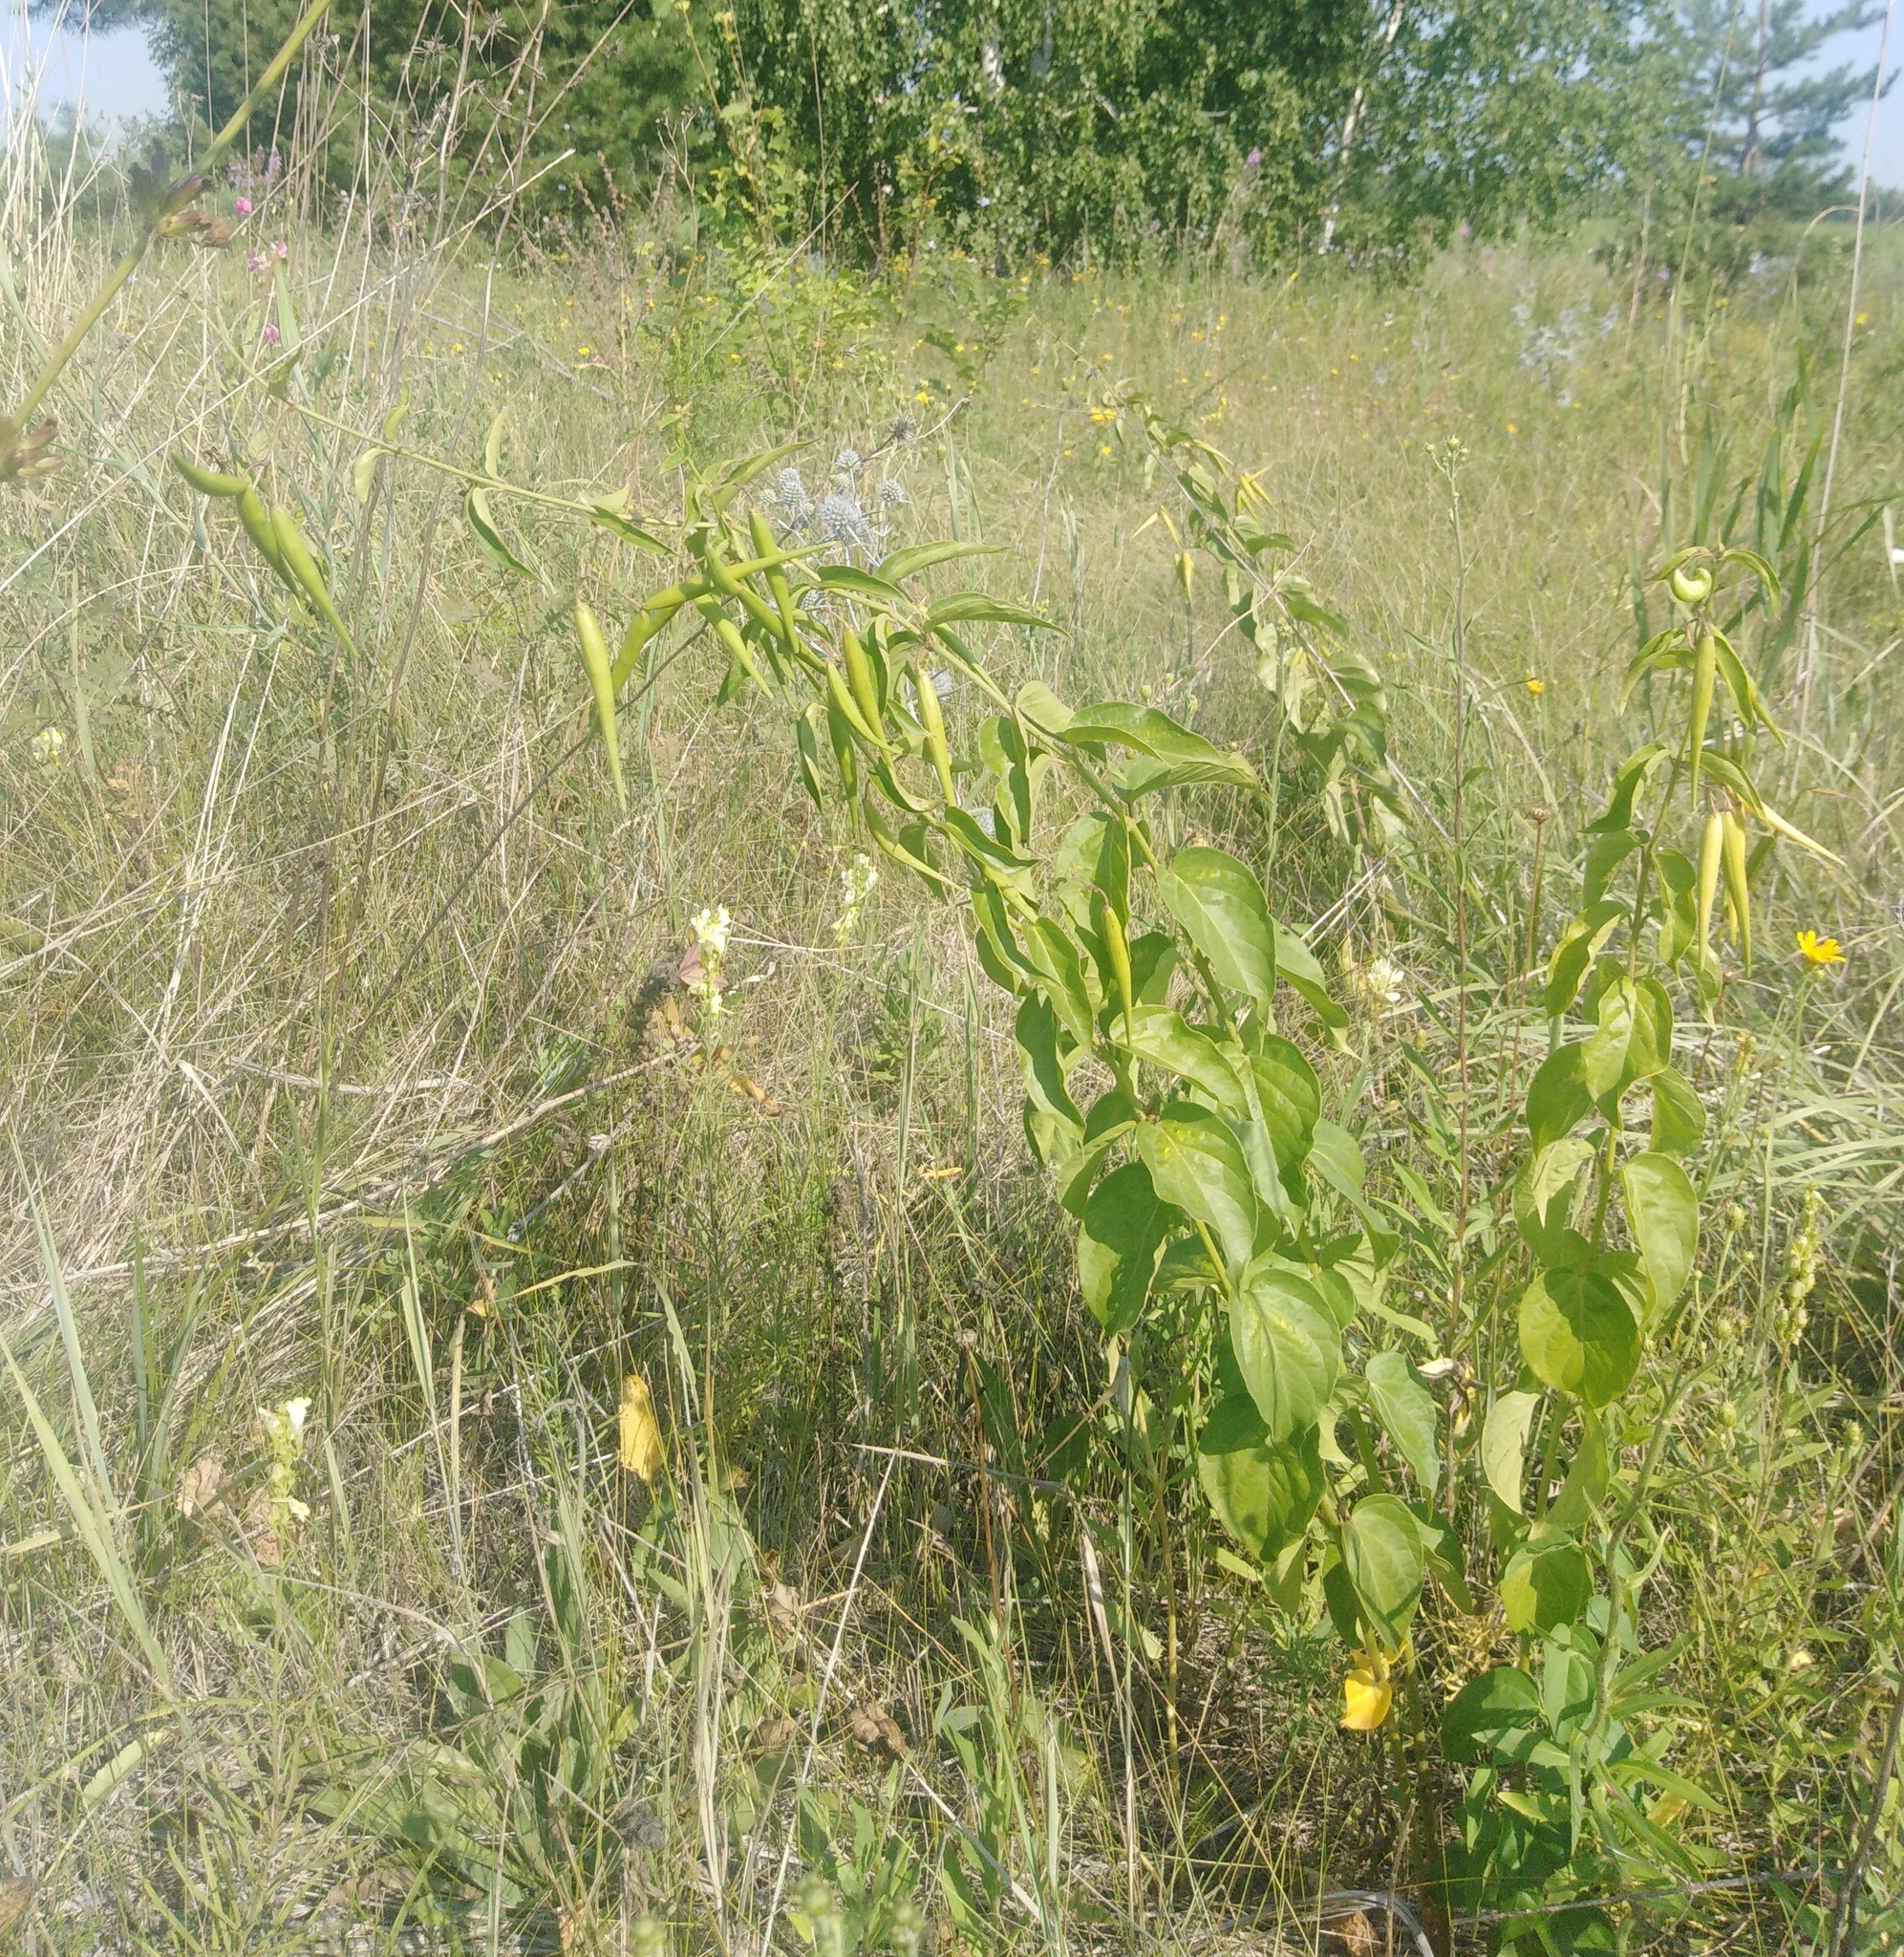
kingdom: Plantae
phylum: Tracheophyta
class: Magnoliopsida
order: Gentianales
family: Apocynaceae
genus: Vincetoxicum
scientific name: Vincetoxicum hirundinaria
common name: White swallowwort
